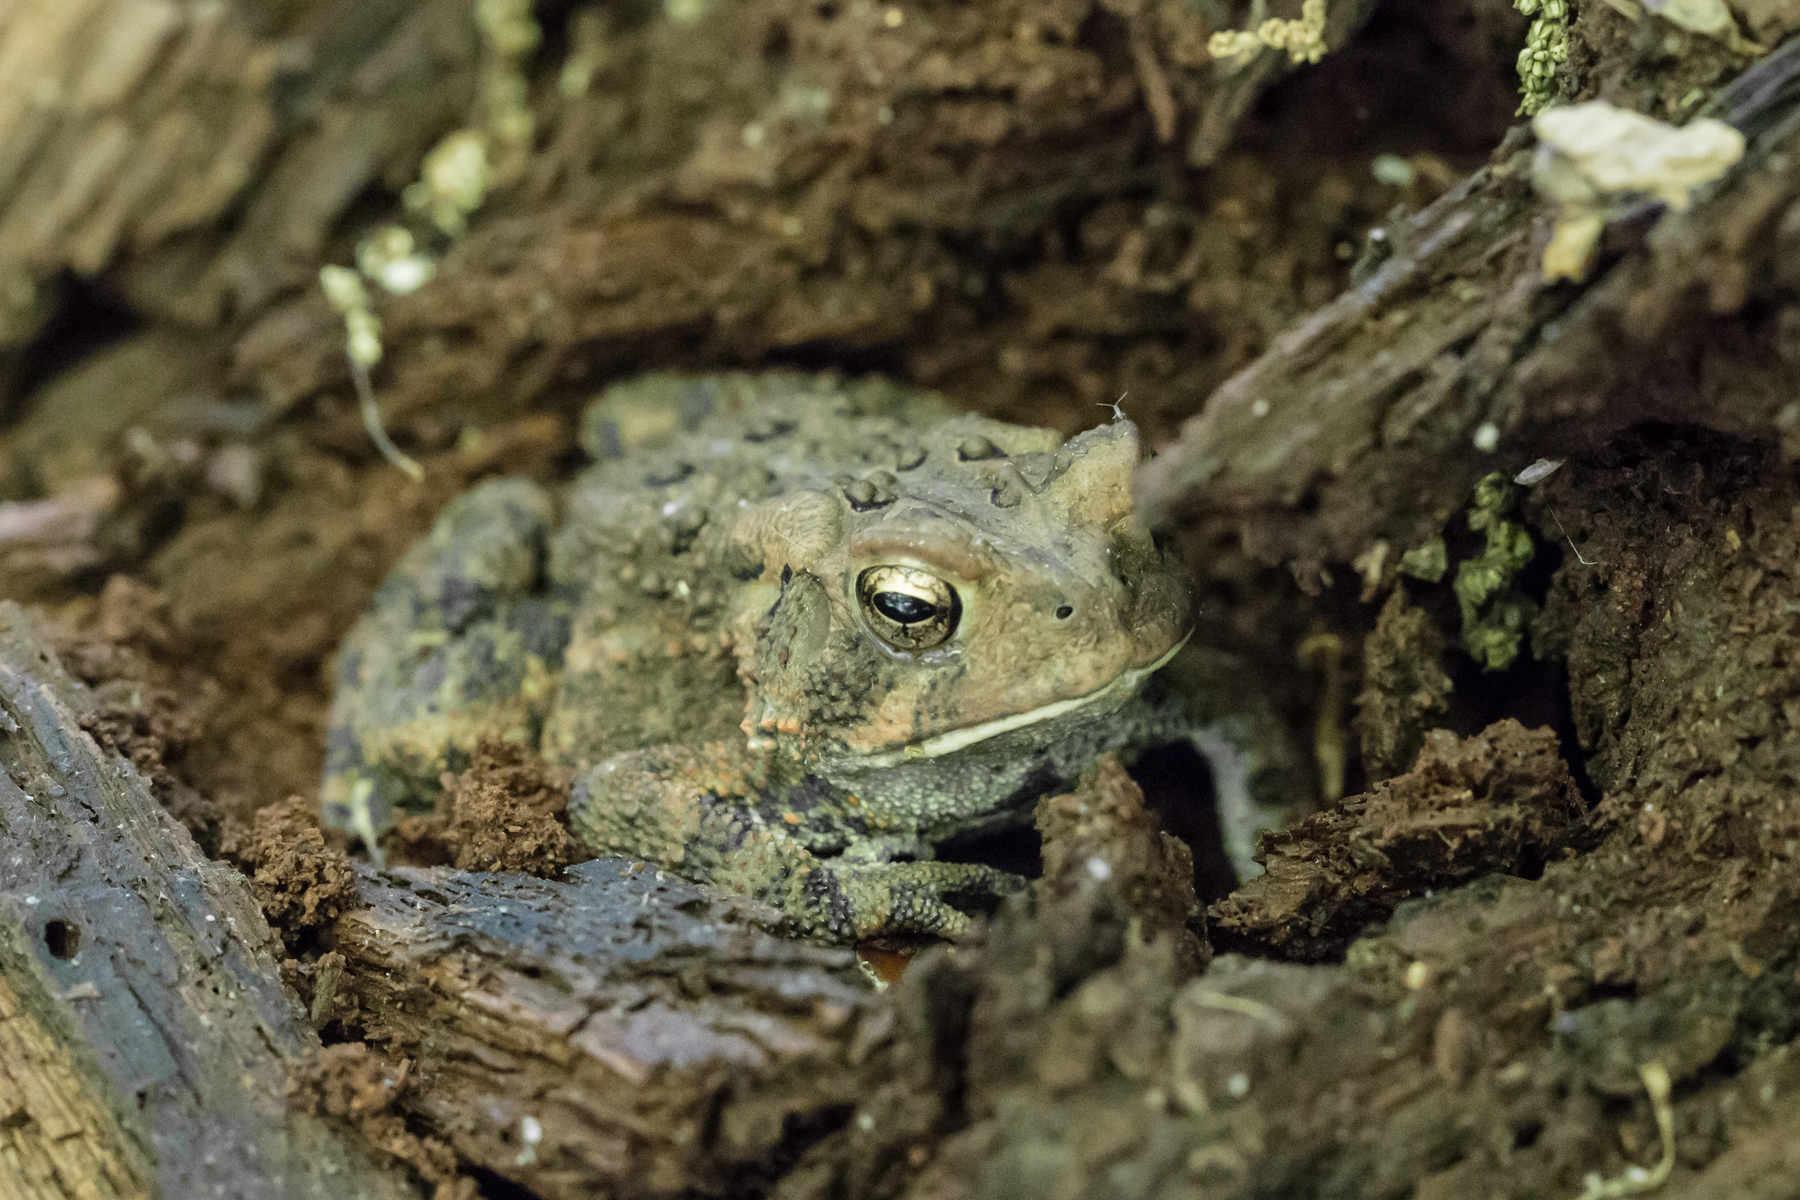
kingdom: Animalia
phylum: Chordata
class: Amphibia
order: Anura
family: Bufonidae
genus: Anaxyrus
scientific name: Anaxyrus americanus
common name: American toad
